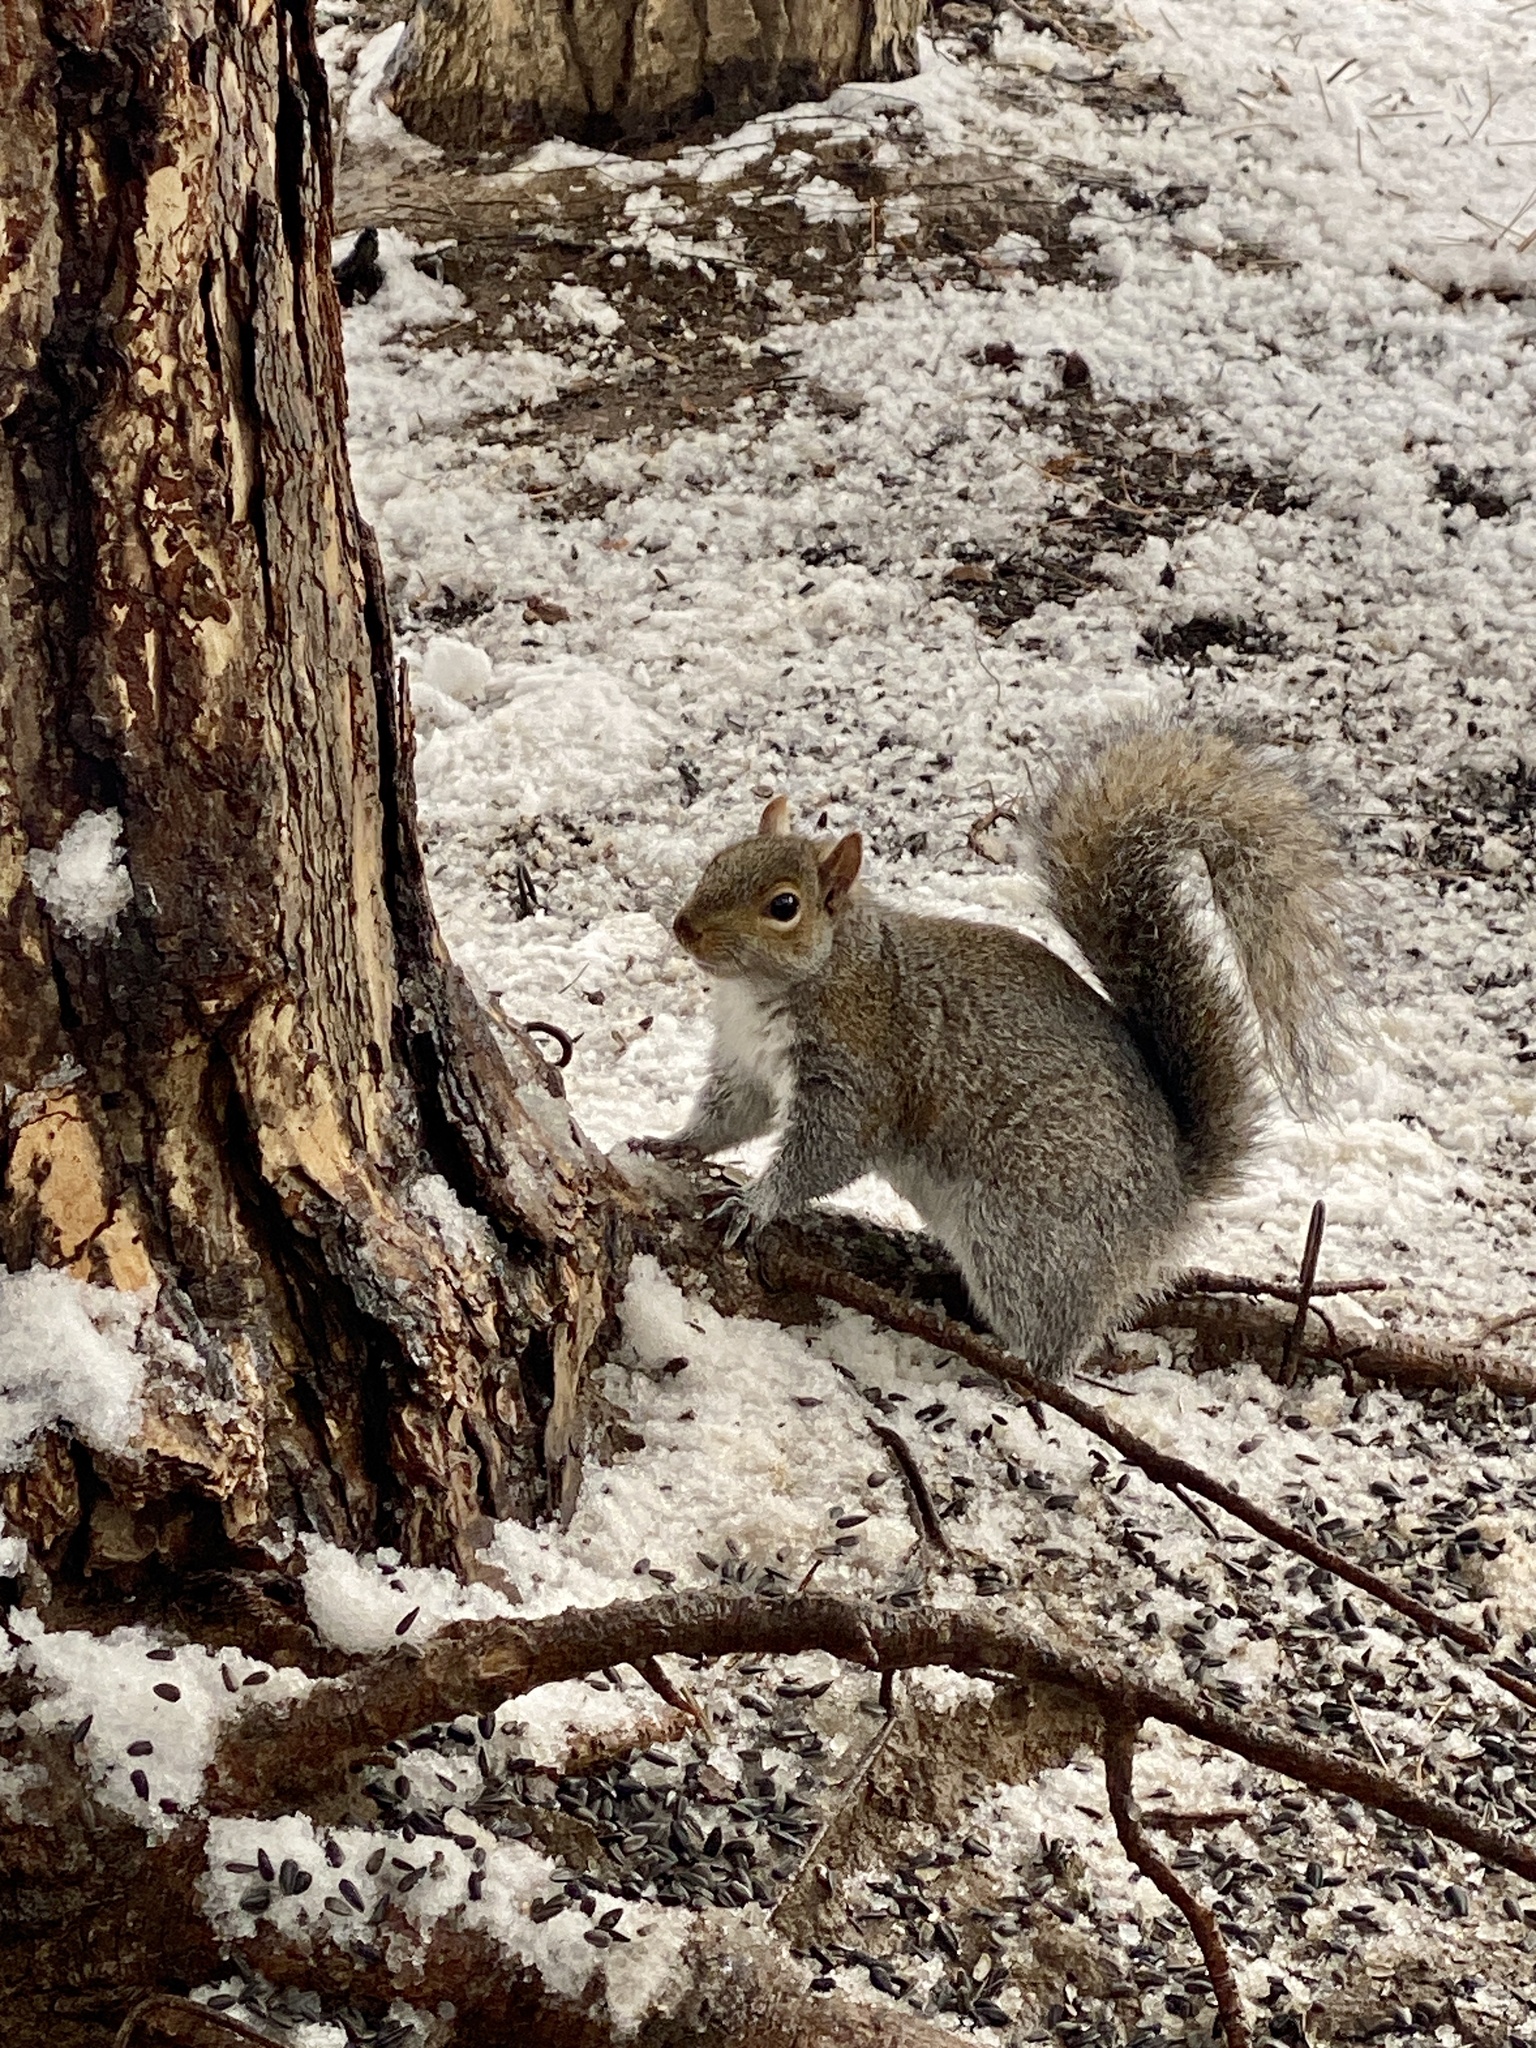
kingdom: Animalia
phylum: Chordata
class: Mammalia
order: Rodentia
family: Sciuridae
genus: Sciurus
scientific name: Sciurus carolinensis
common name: Eastern gray squirrel
